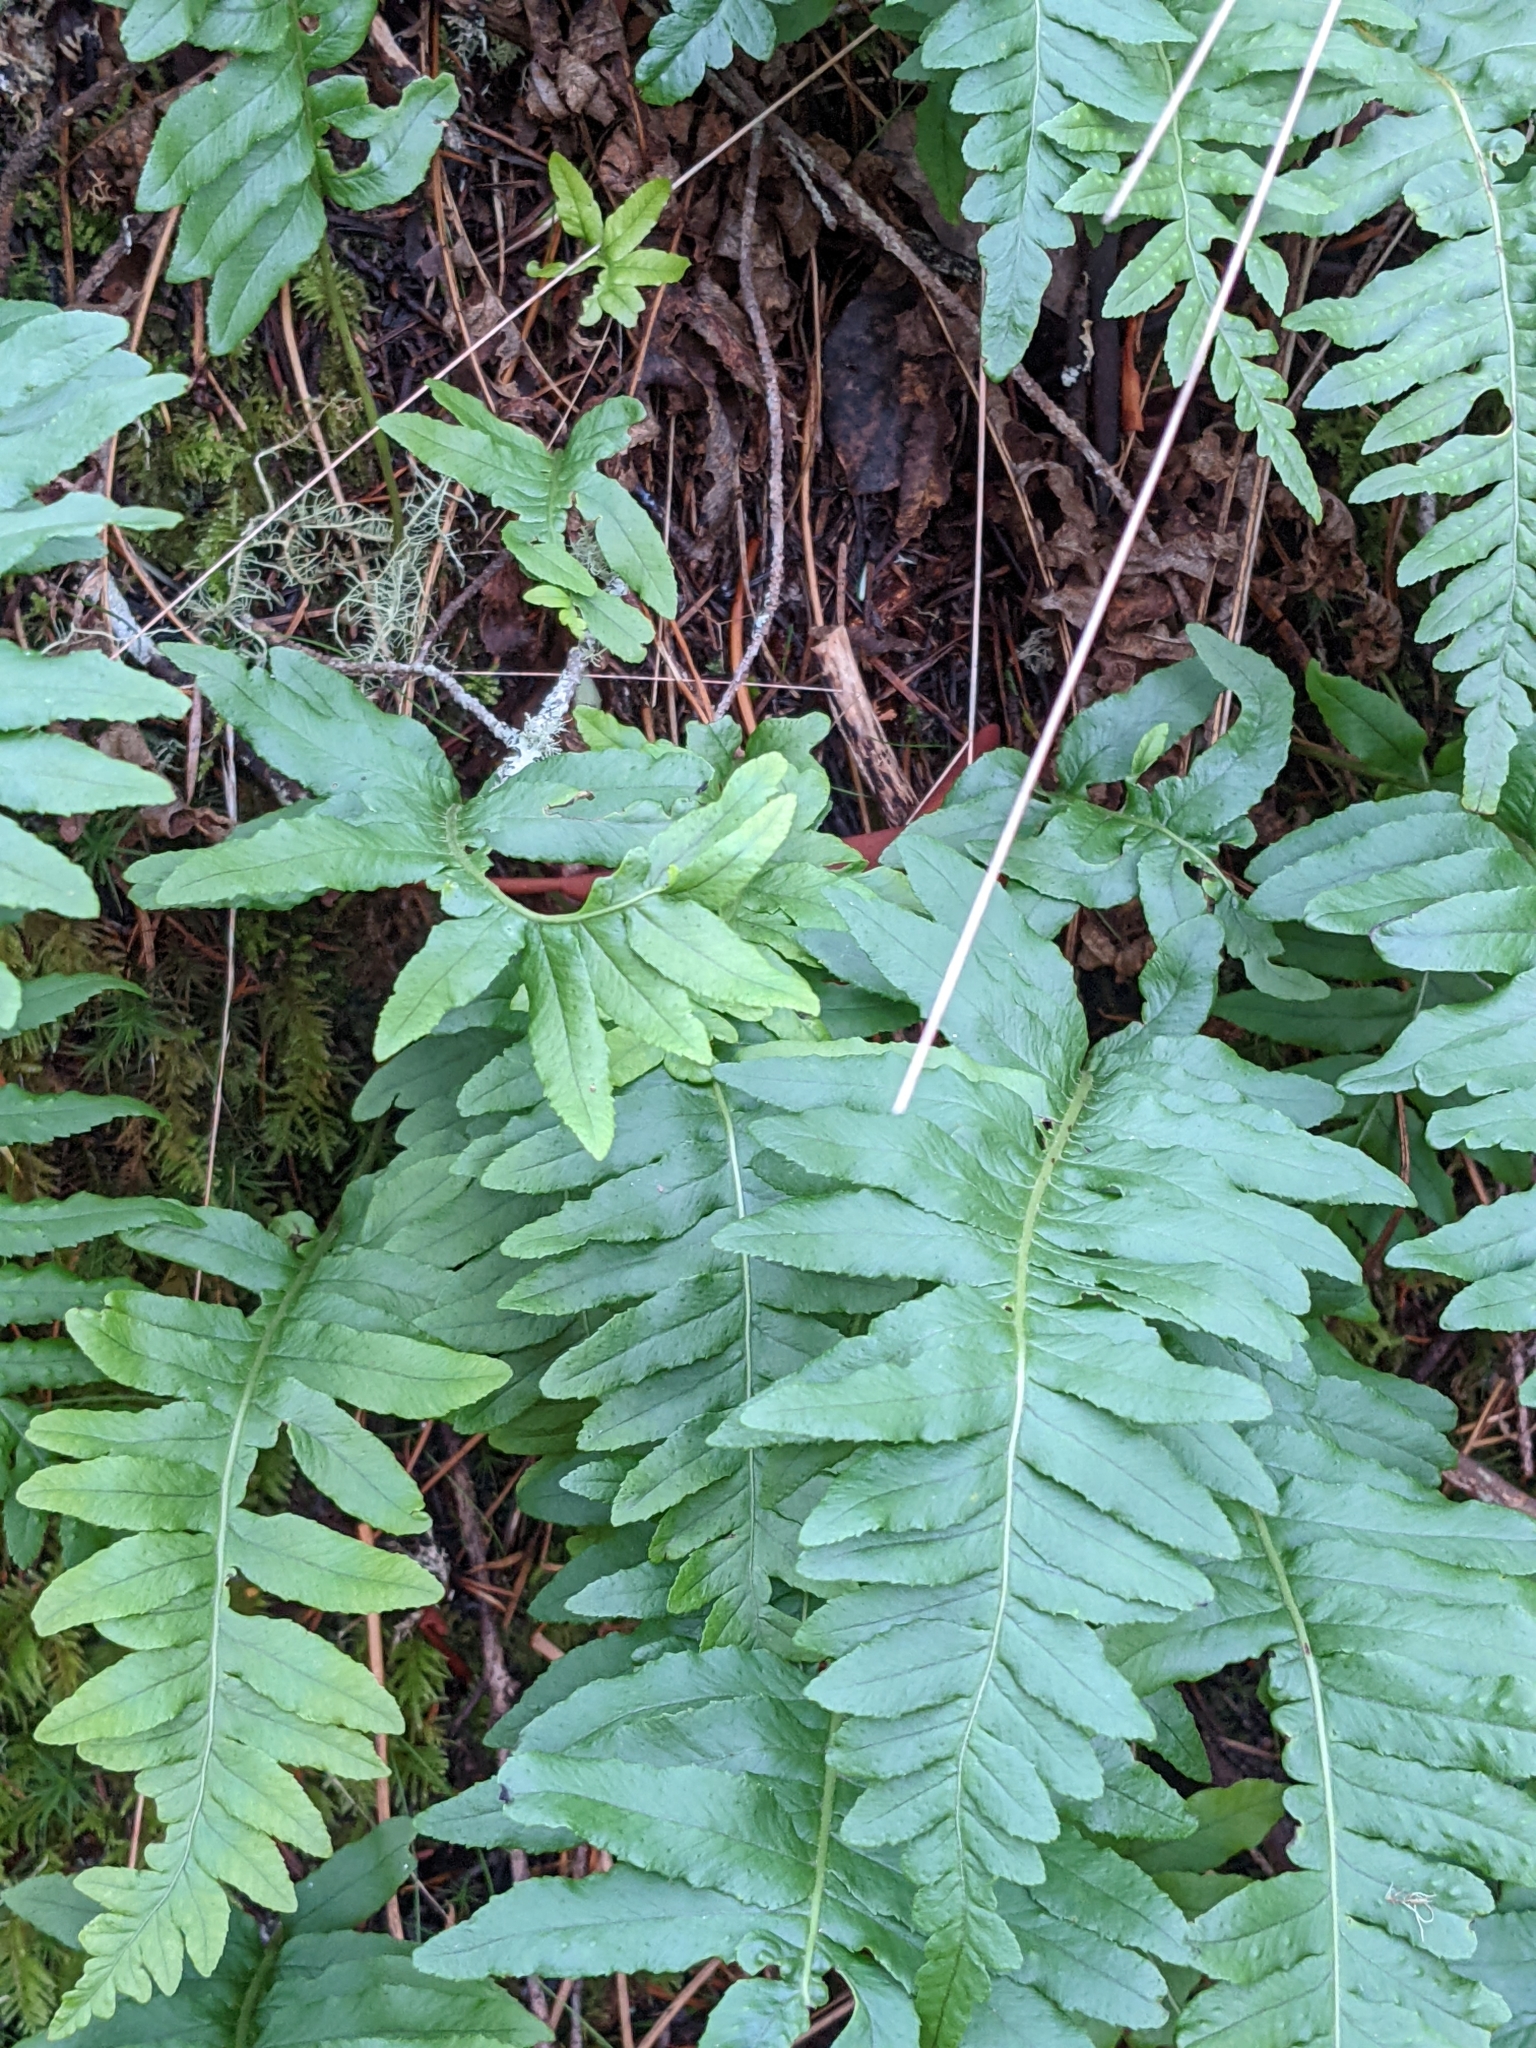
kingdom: Plantae
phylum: Tracheophyta
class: Polypodiopsida
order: Polypodiales
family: Polypodiaceae
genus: Polypodium
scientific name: Polypodium glycyrrhiza
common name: Licorice fern
